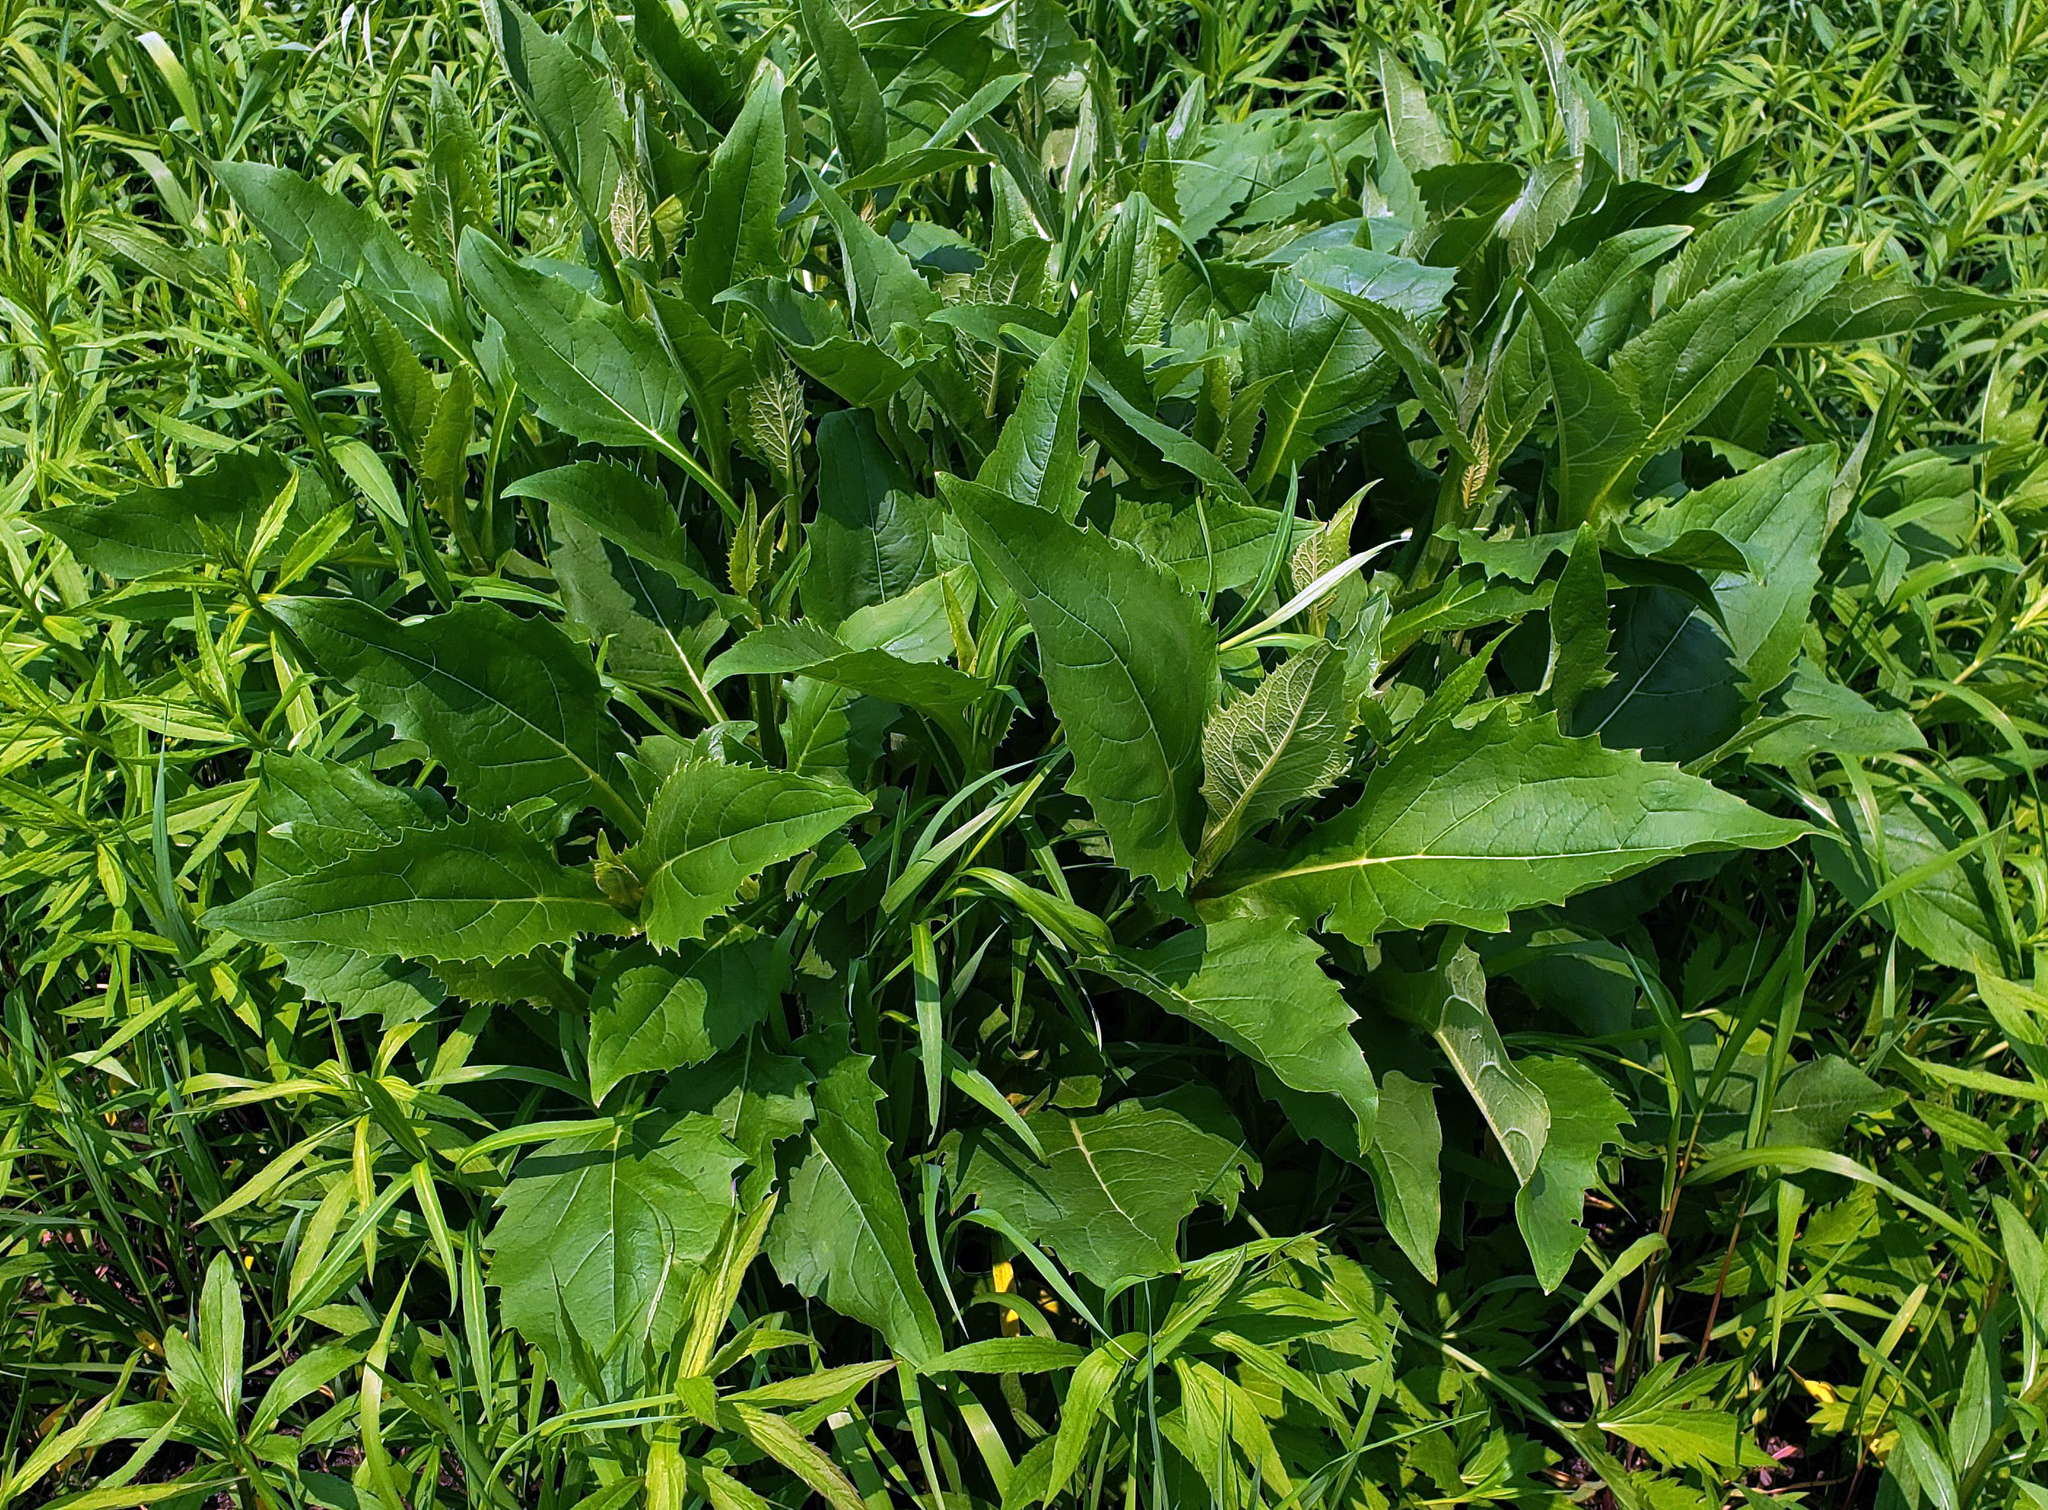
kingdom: Plantae
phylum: Tracheophyta
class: Magnoliopsida
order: Asterales
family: Asteraceae
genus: Silphium
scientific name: Silphium perfoliatum
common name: Cup-plant
